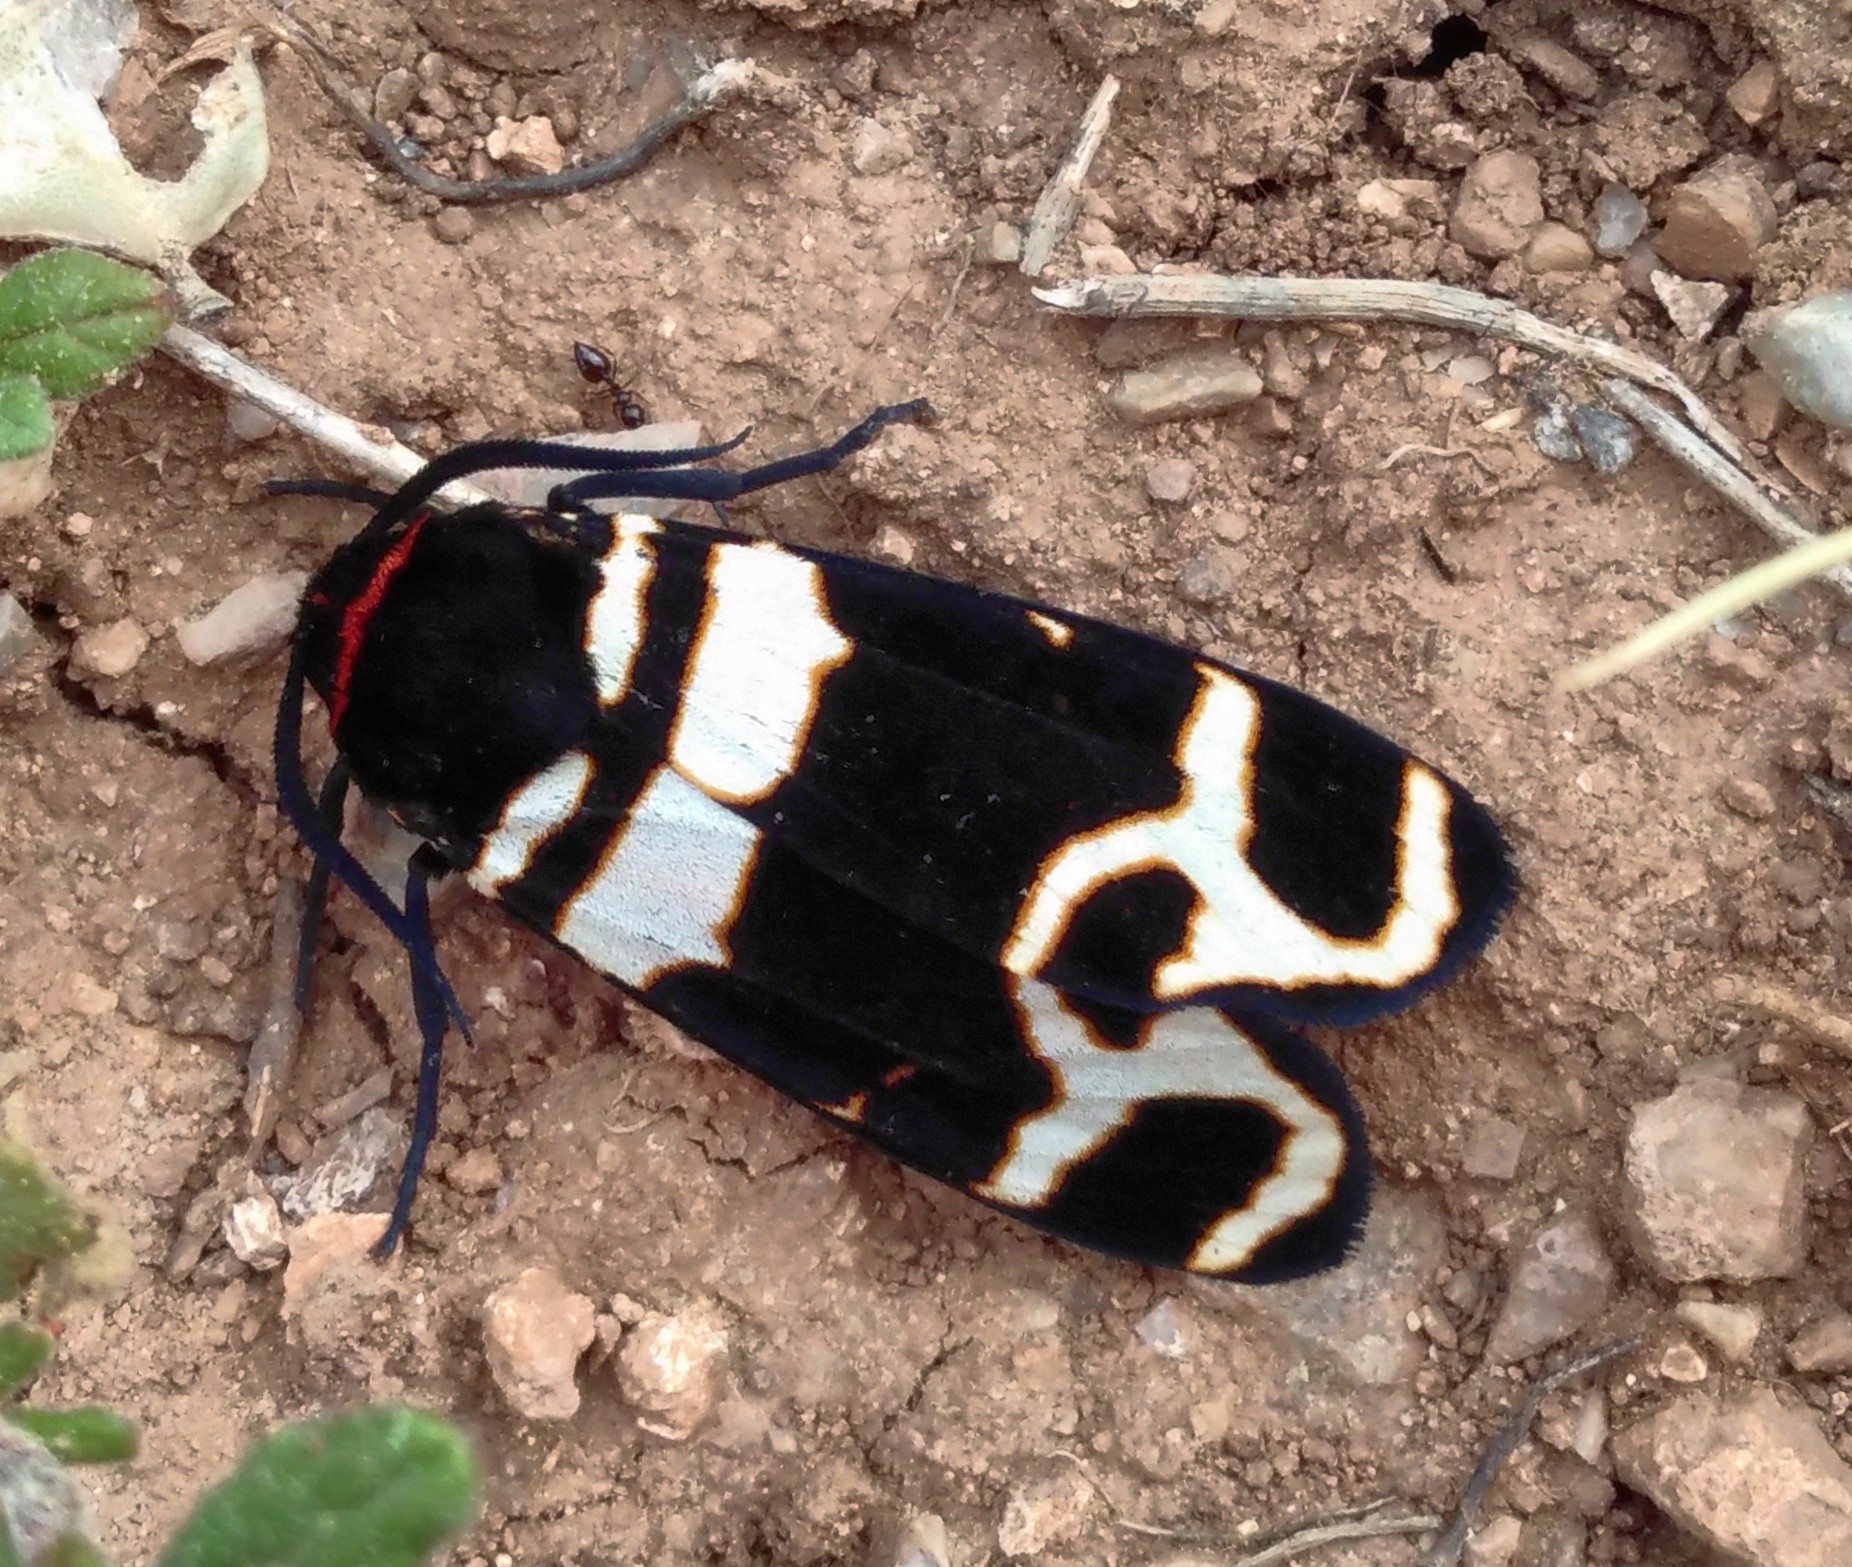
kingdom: Animalia
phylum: Arthropoda
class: Insecta
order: Lepidoptera
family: Erebidae
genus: Eucharia
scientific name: Eucharia festiva
